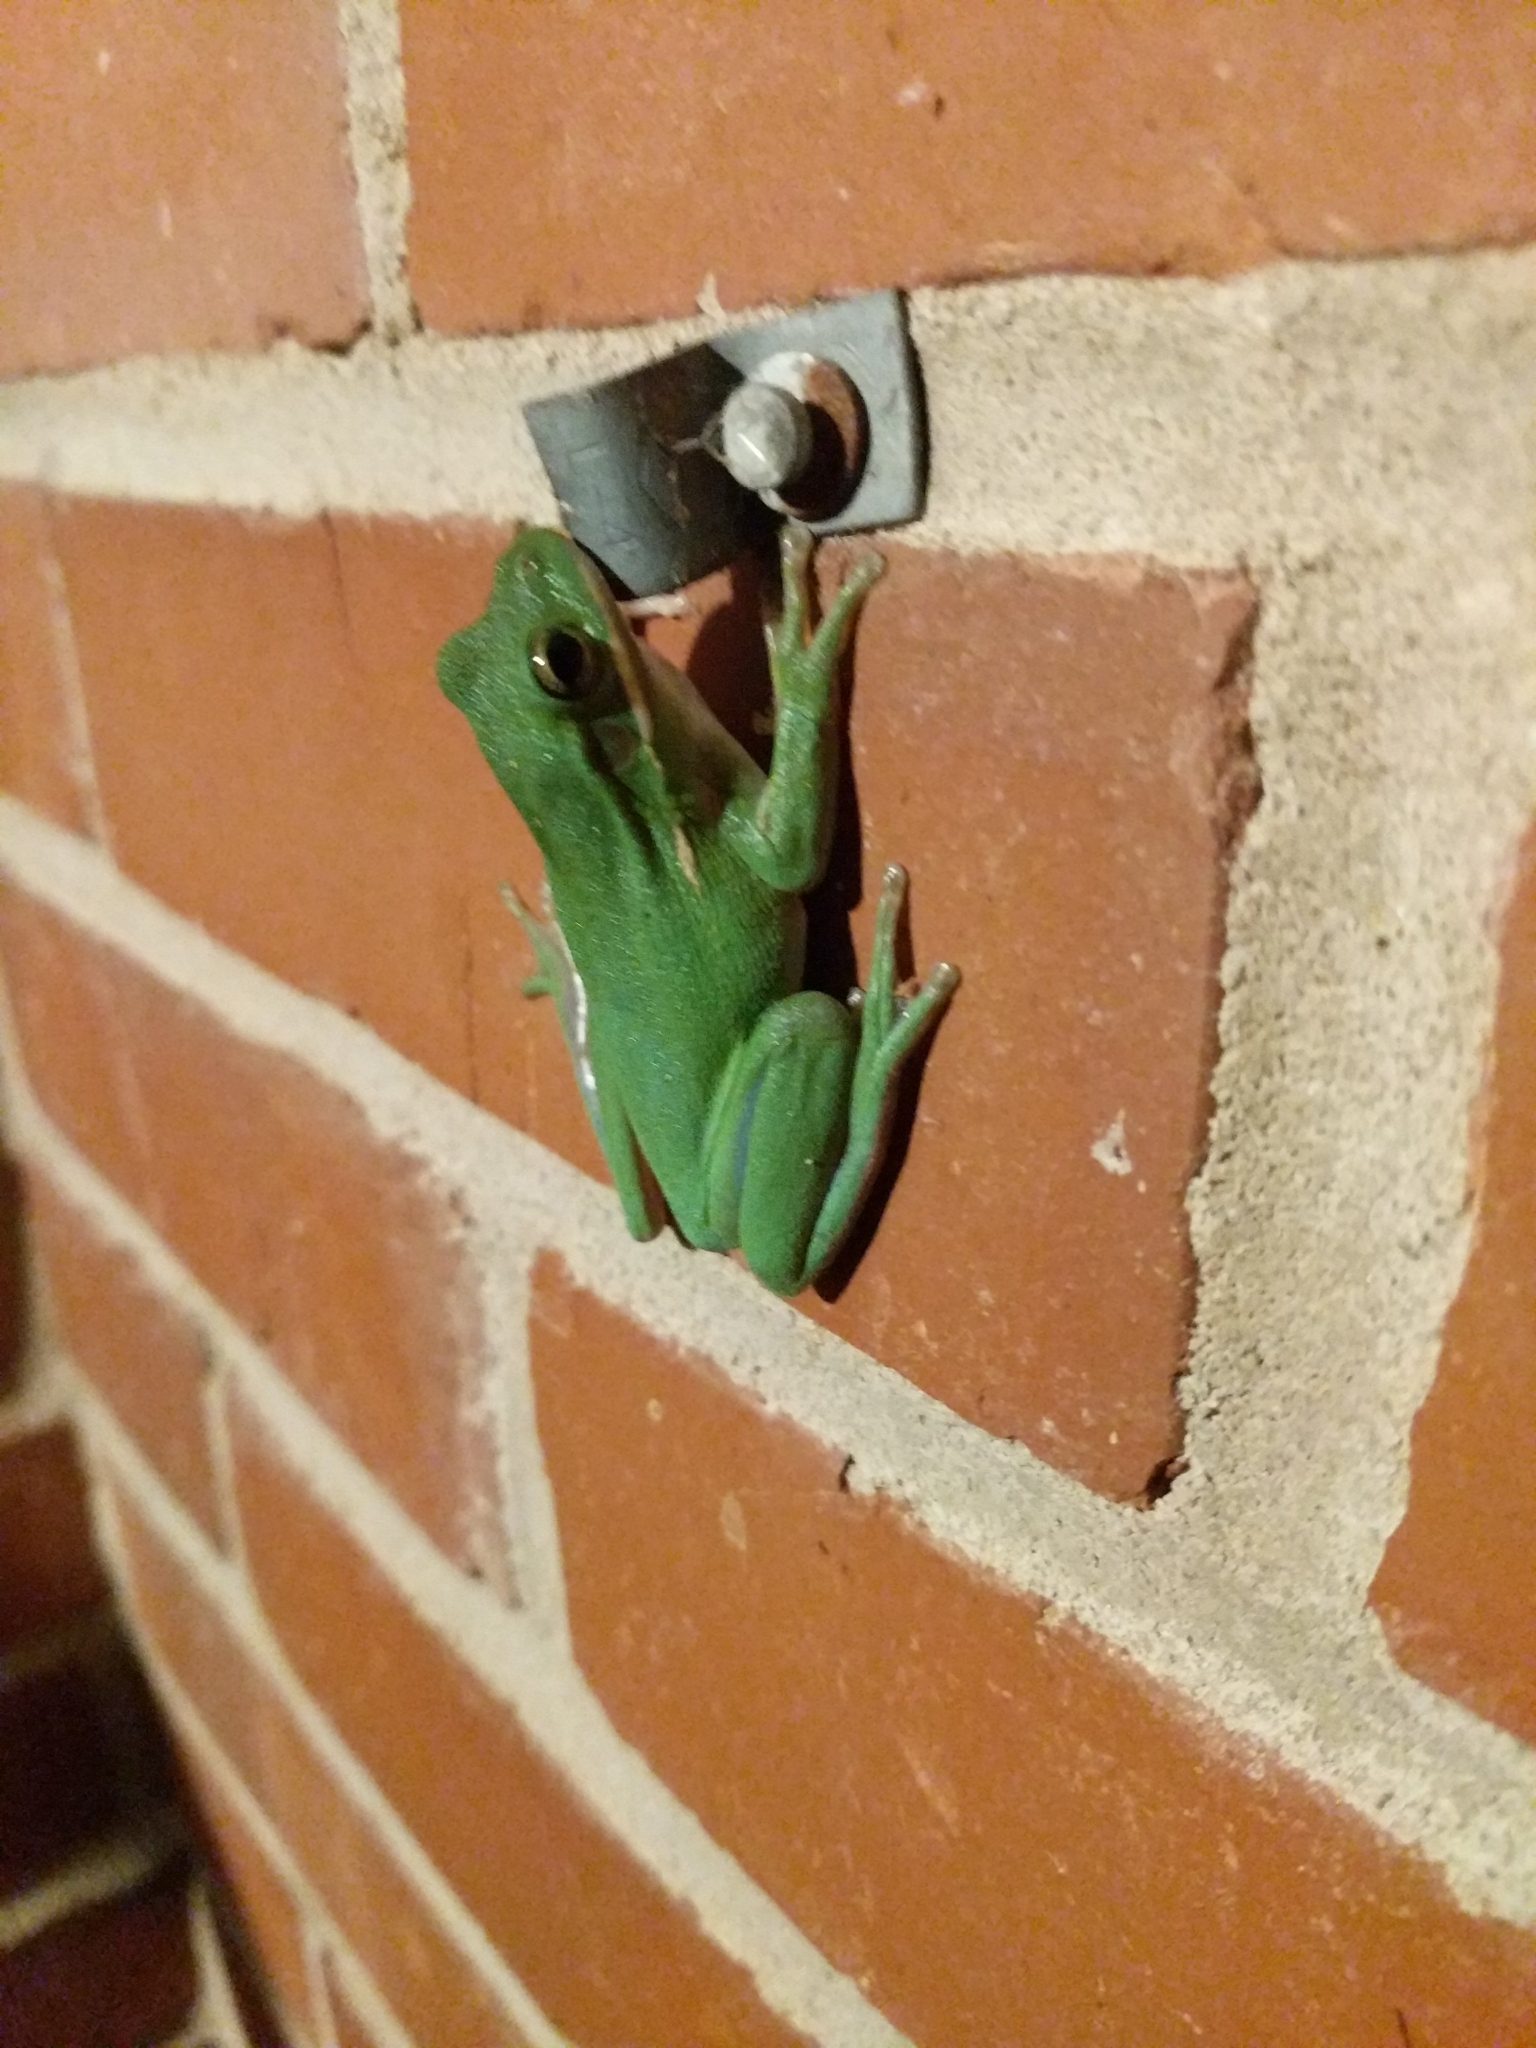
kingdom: Animalia
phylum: Chordata
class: Amphibia
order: Anura
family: Hylidae
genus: Dryophytes
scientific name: Dryophytes cinereus
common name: Green treefrog
